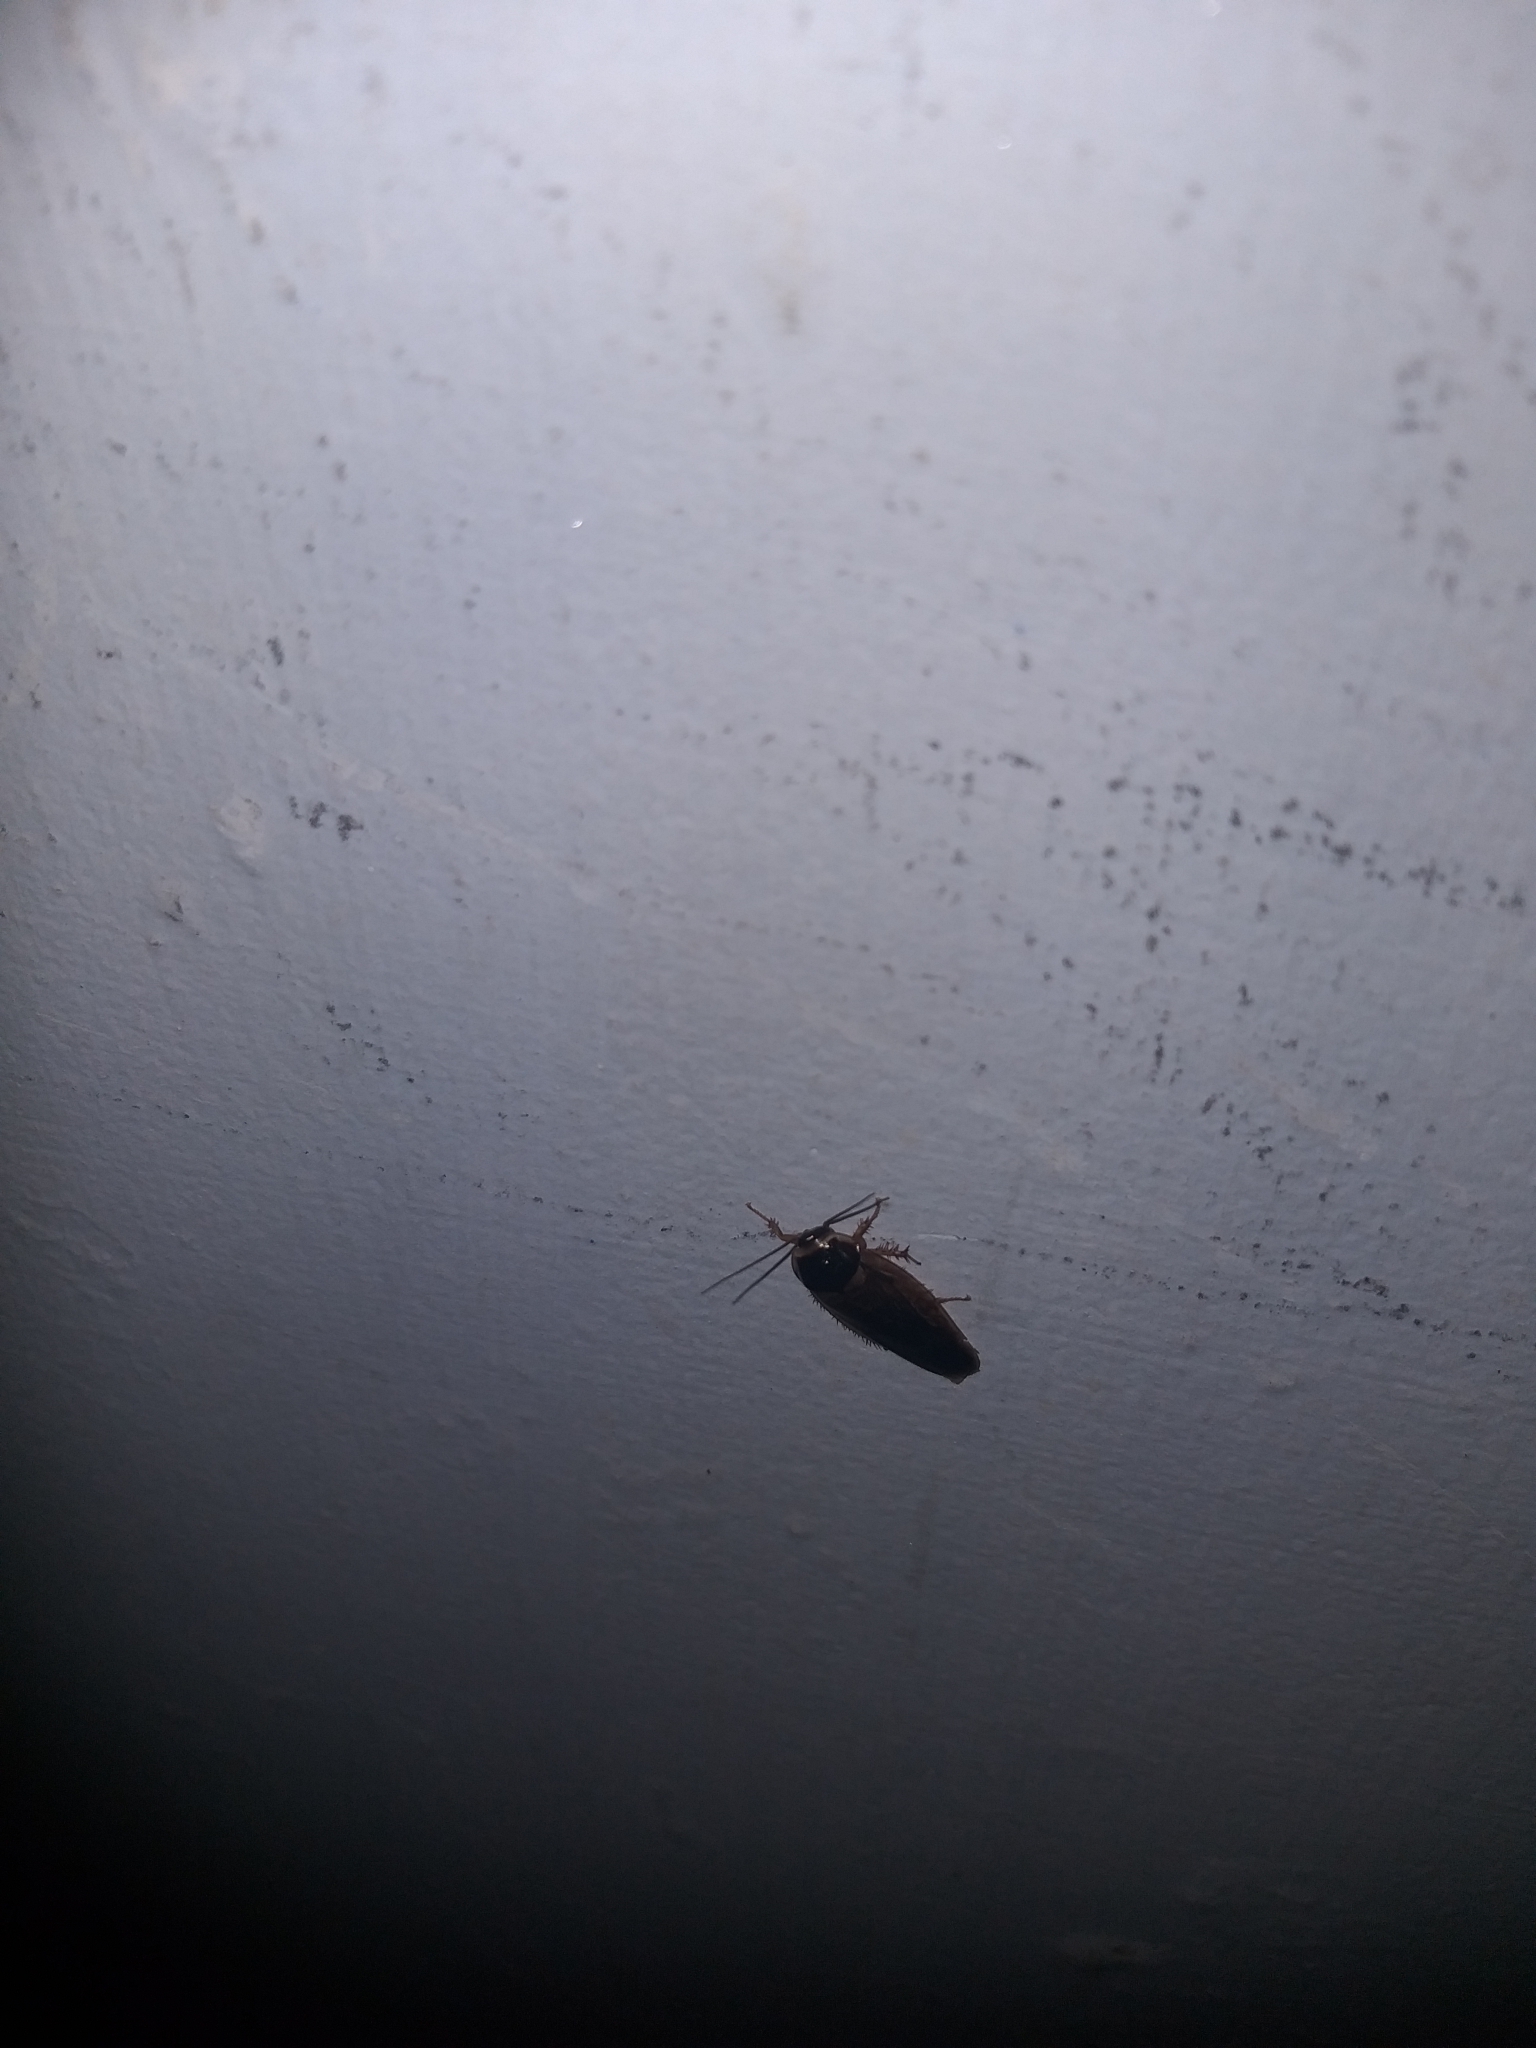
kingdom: Animalia
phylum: Arthropoda
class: Insecta
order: Blattodea
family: Blaberidae
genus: Pycnoscelus
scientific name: Pycnoscelus surinamensis
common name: Surinam cockroach
